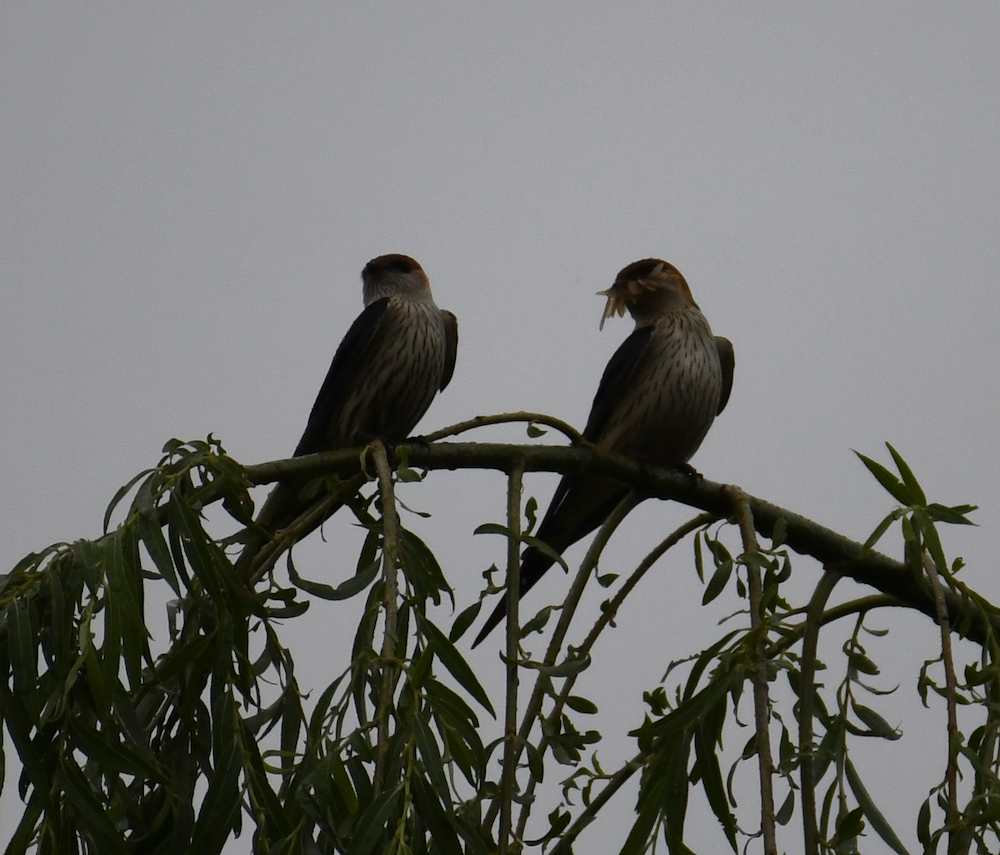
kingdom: Animalia
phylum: Chordata
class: Aves
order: Passeriformes
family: Hirundinidae
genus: Cecropis
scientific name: Cecropis cucullata
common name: Greater striped-swallow
